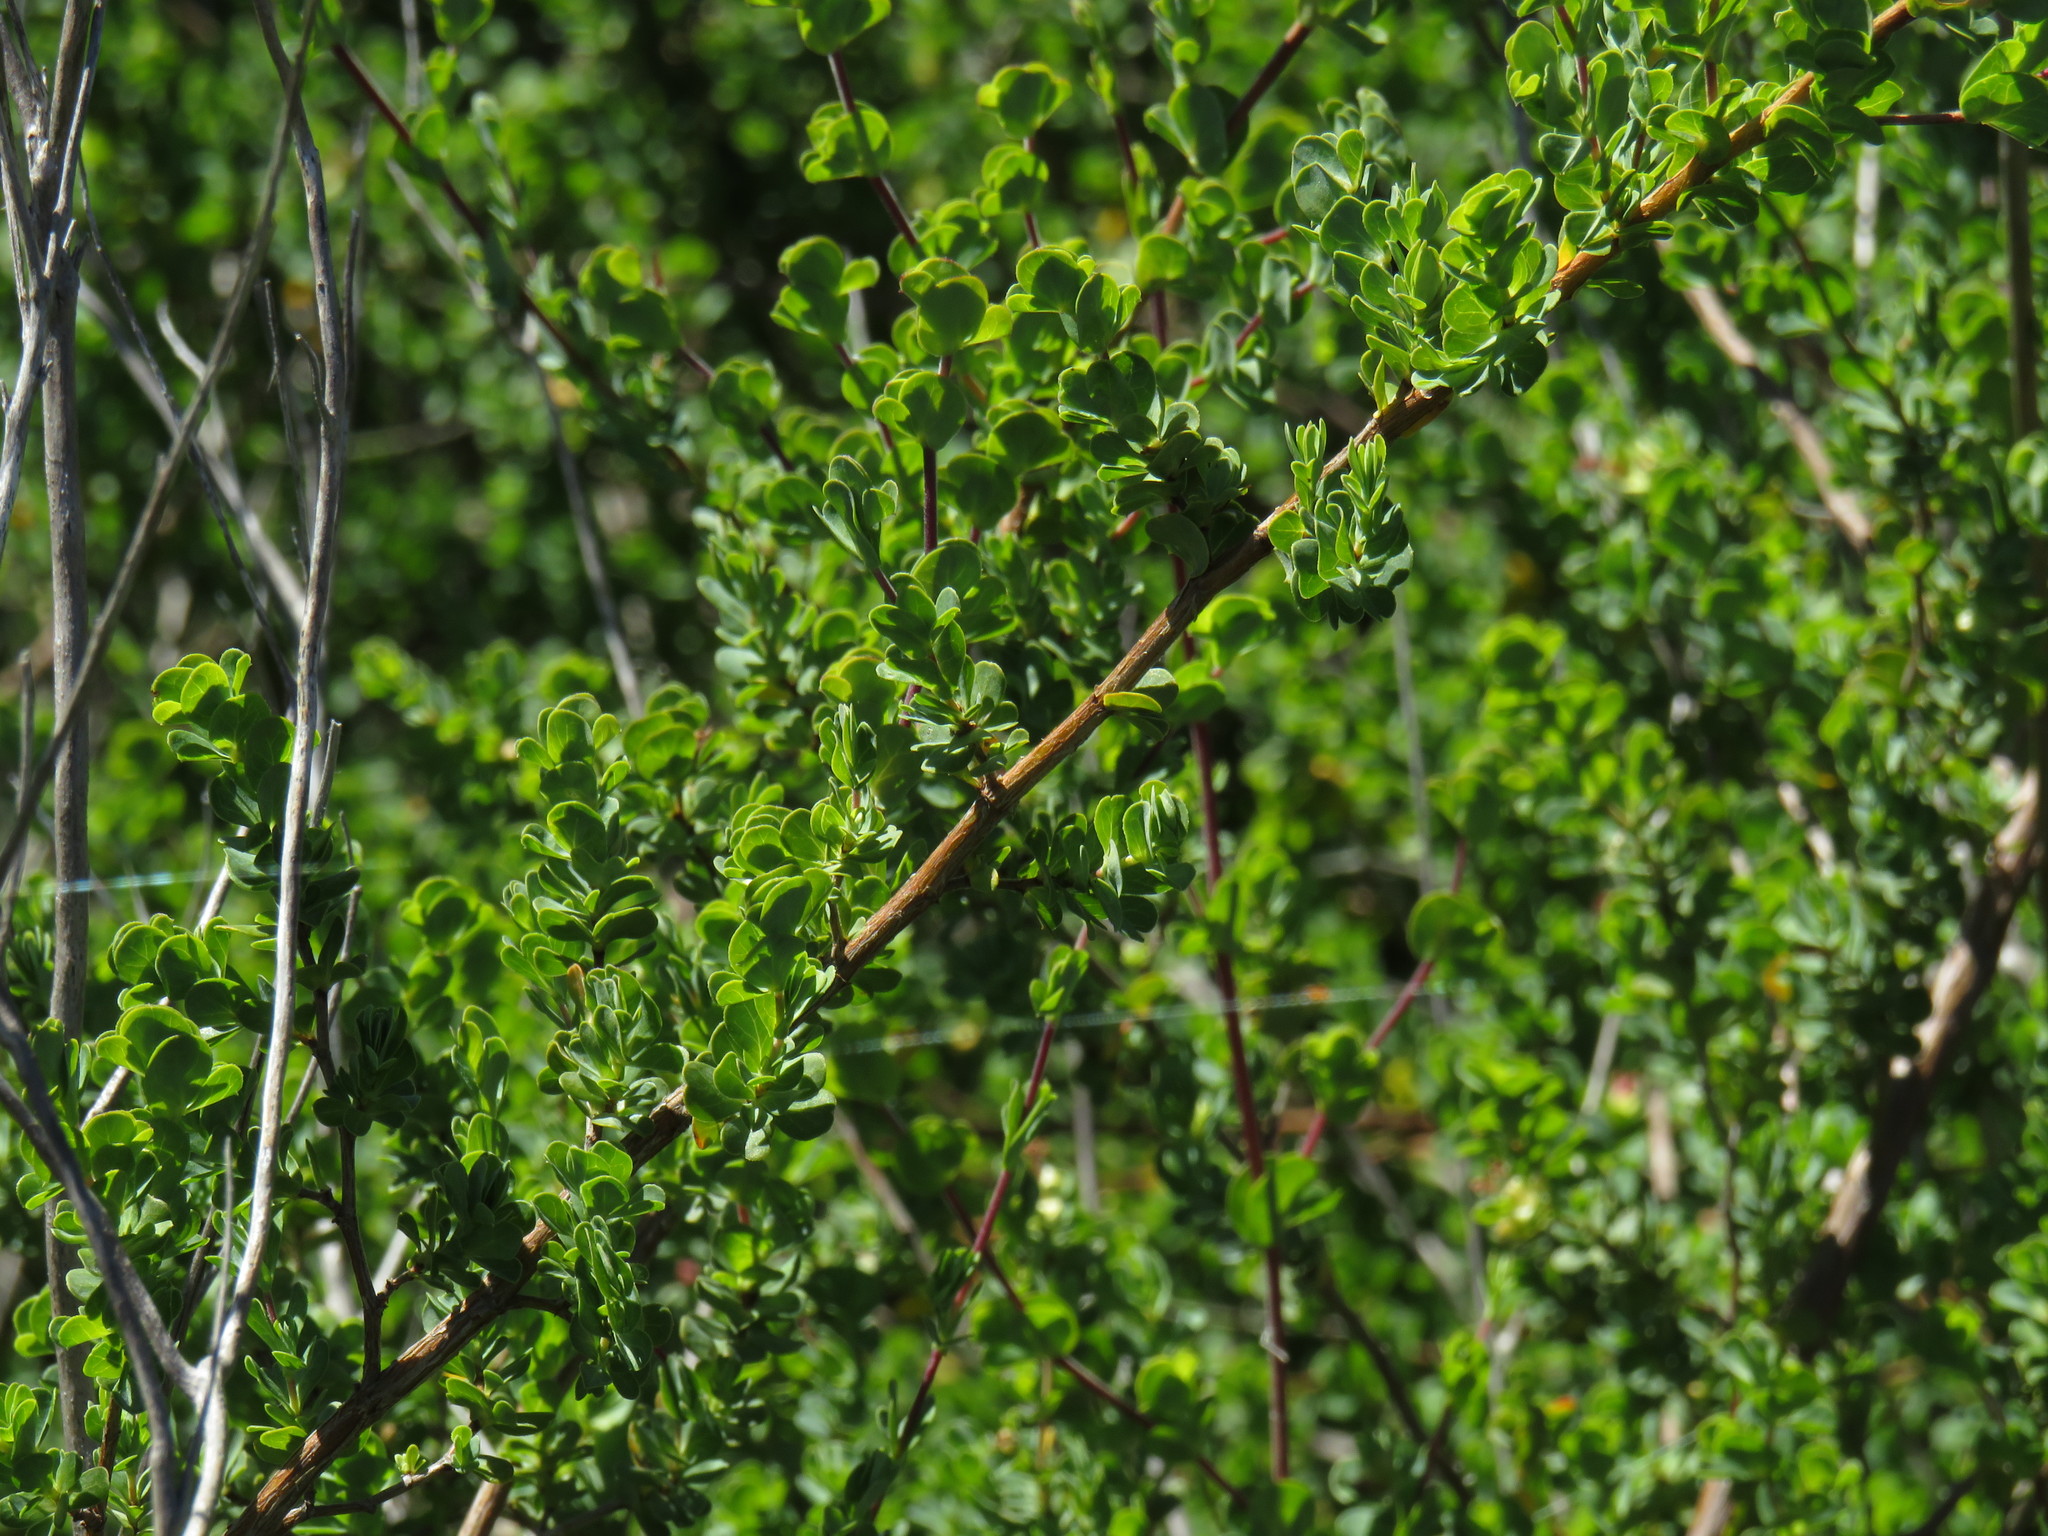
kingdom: Plantae
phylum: Tracheophyta
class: Magnoliopsida
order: Rosales
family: Rosaceae
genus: Cliffortia
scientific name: Cliffortia obcordata
